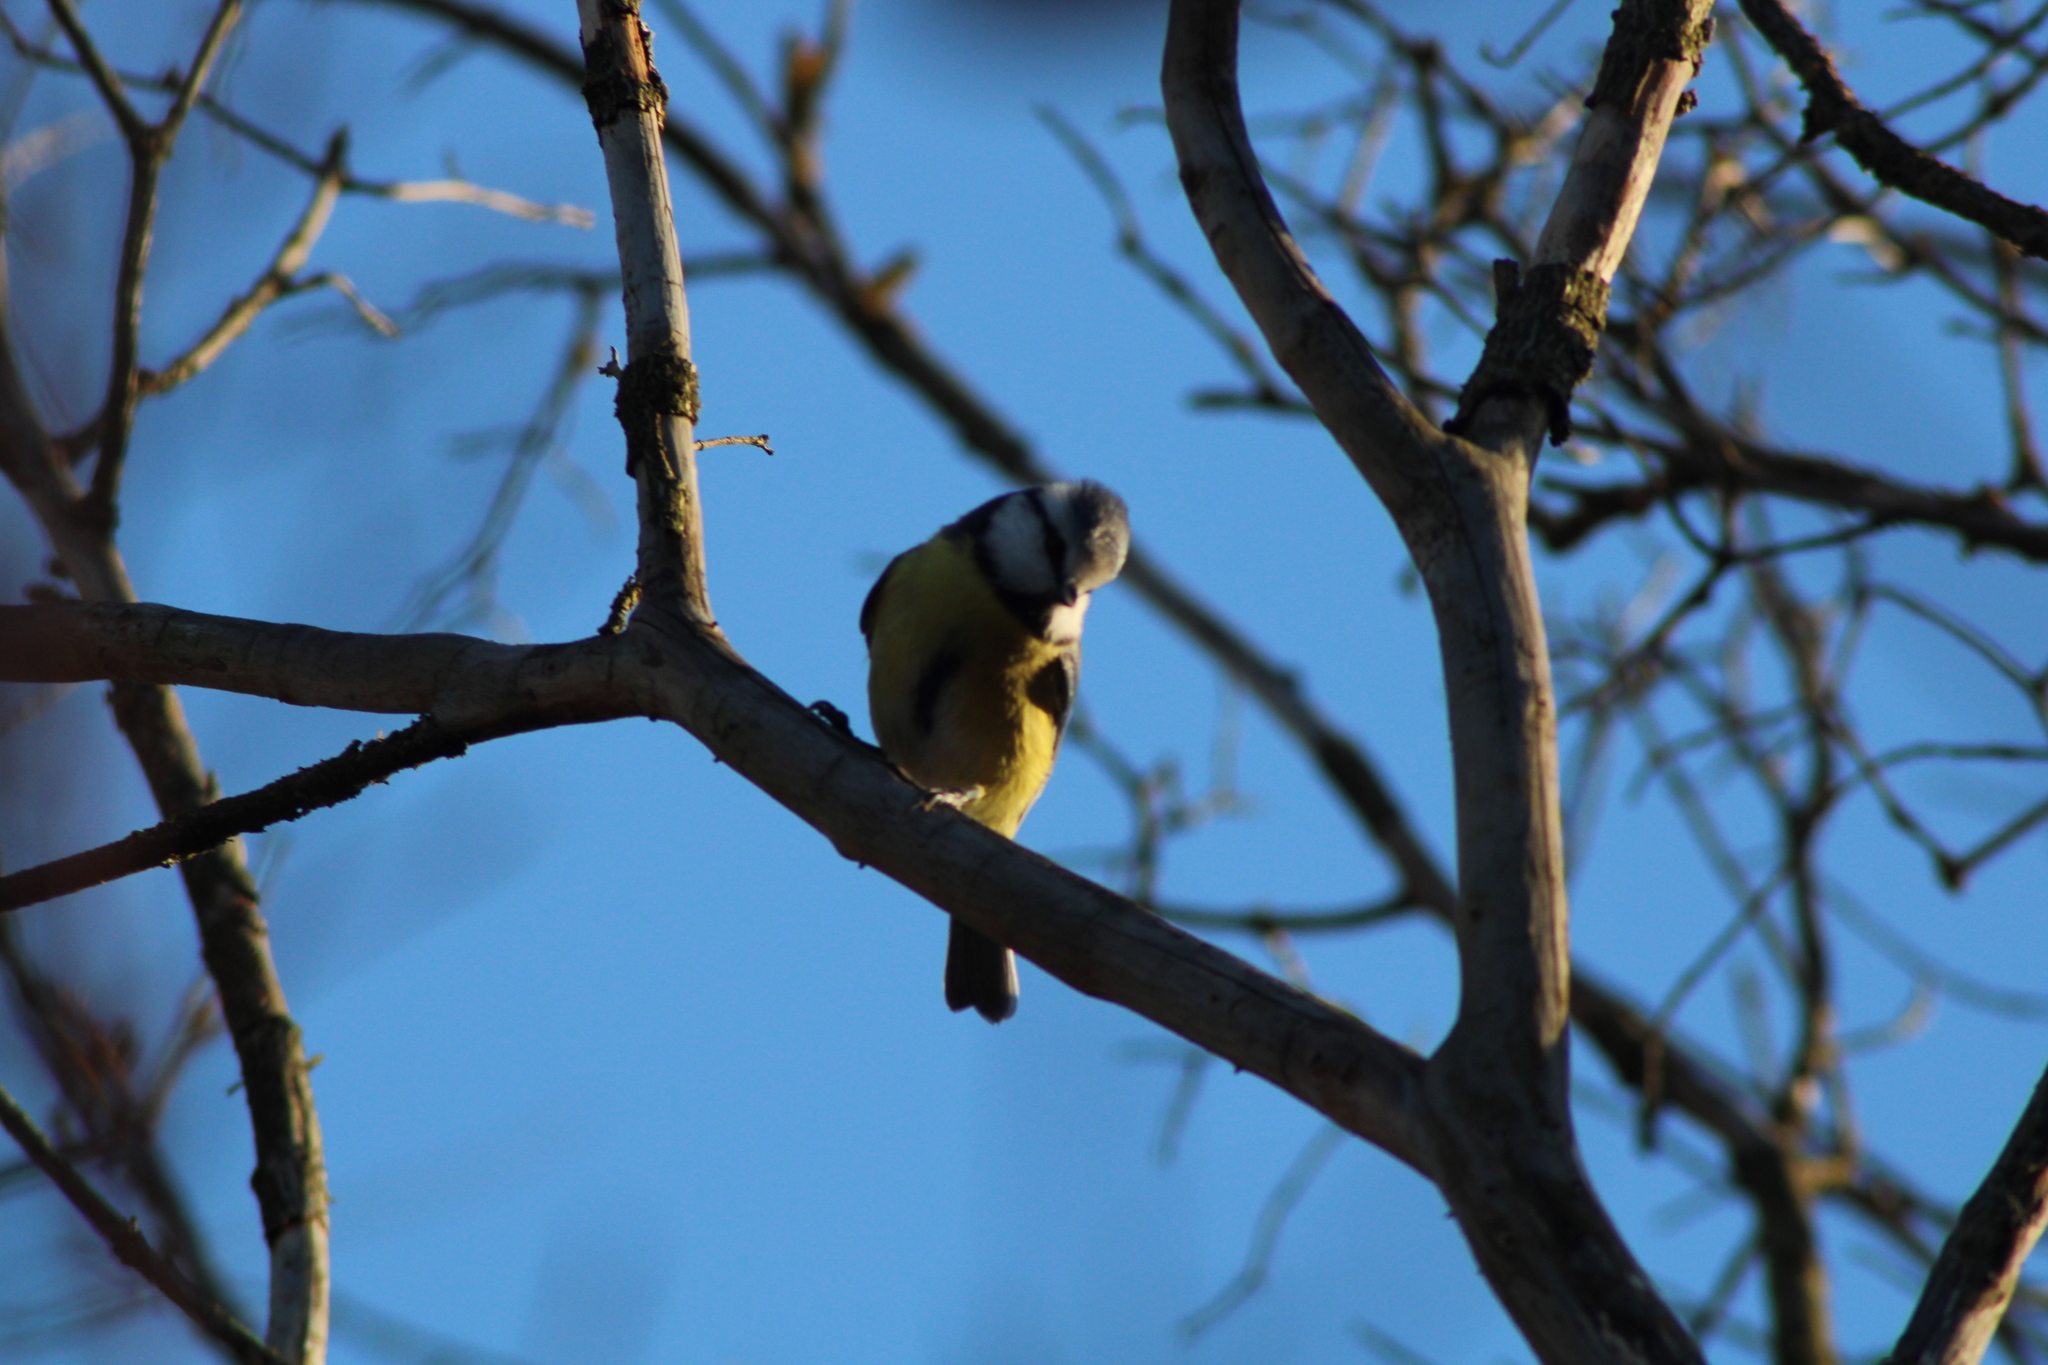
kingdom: Animalia
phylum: Chordata
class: Aves
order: Passeriformes
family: Paridae
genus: Cyanistes
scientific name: Cyanistes caeruleus
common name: Eurasian blue tit
